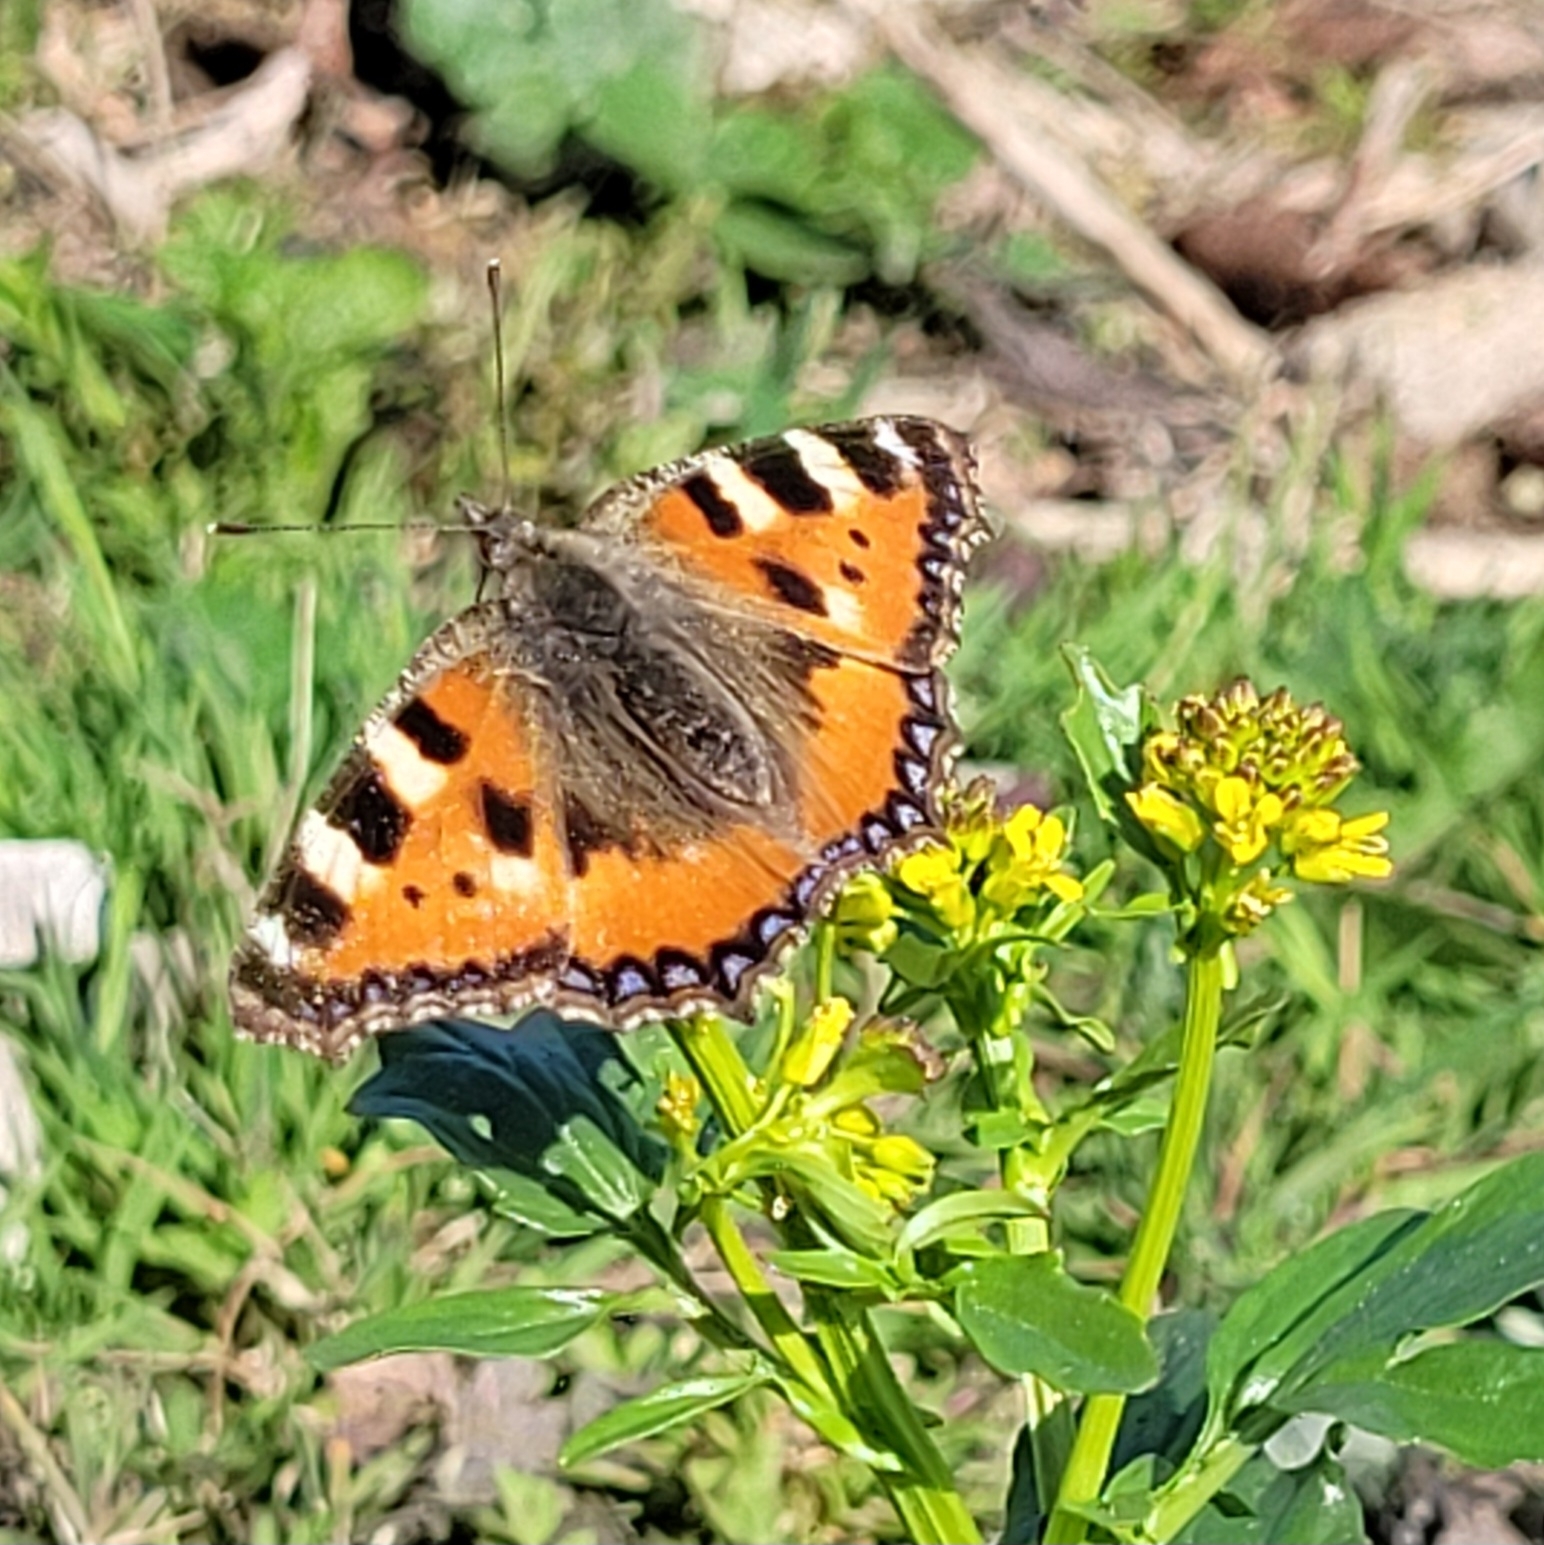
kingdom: Animalia
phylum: Arthropoda
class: Insecta
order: Lepidoptera
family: Nymphalidae
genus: Aglais
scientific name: Aglais urticae
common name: Small tortoiseshell
